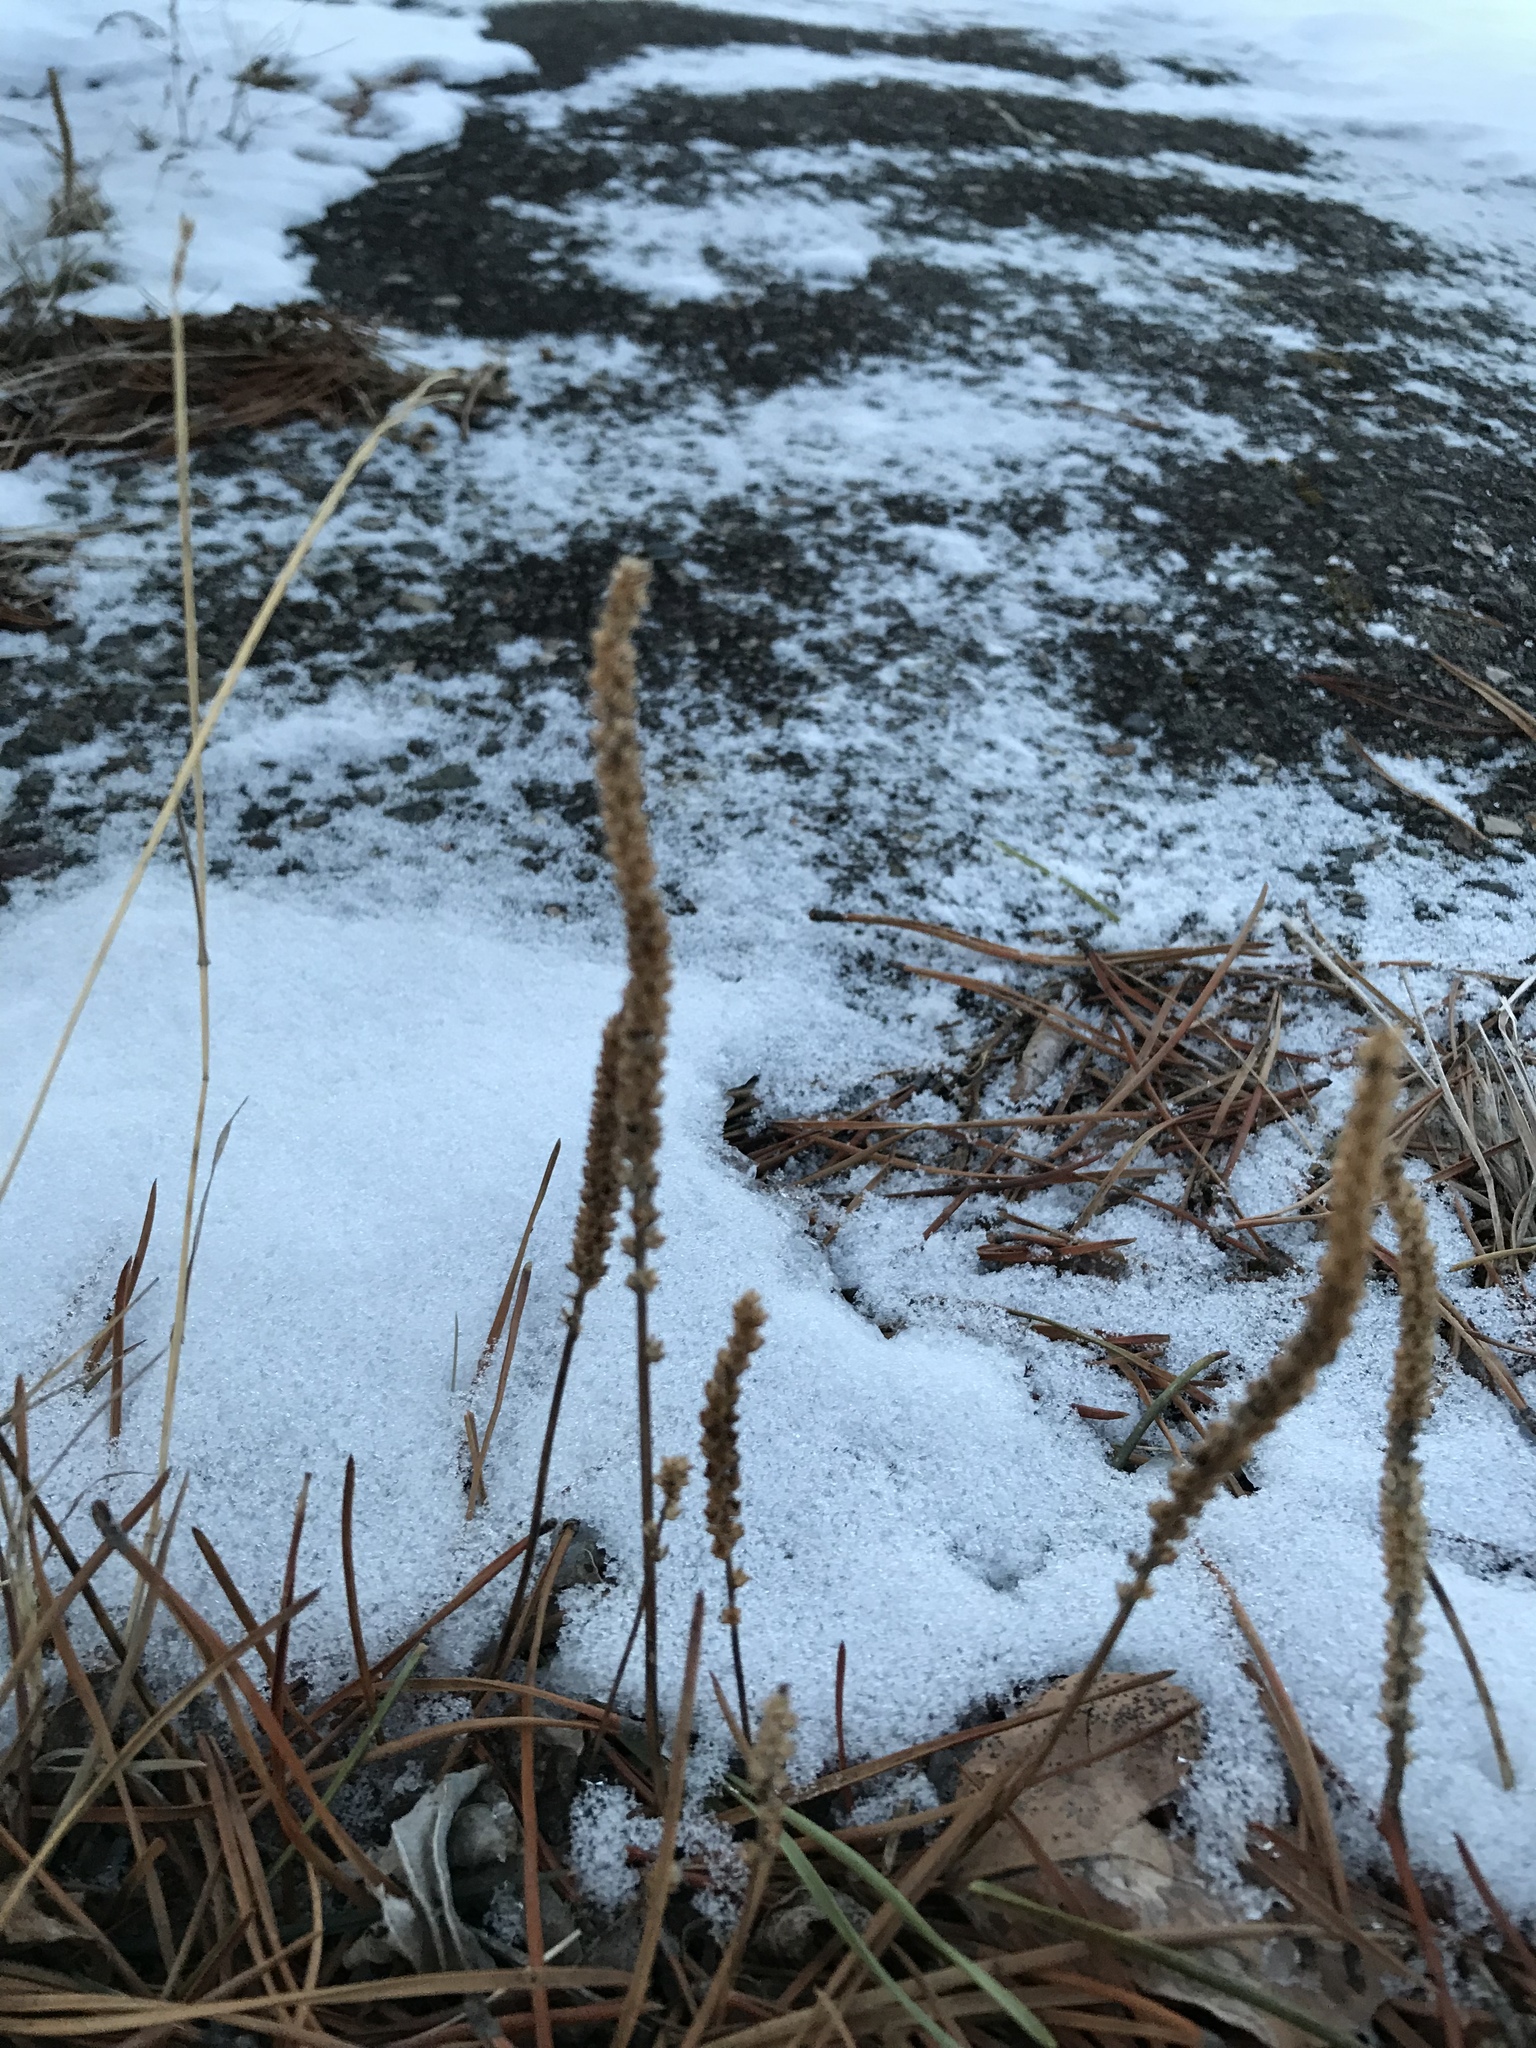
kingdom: Plantae
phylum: Tracheophyta
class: Magnoliopsida
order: Lamiales
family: Plantaginaceae
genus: Plantago
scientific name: Plantago major
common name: Common plantain
